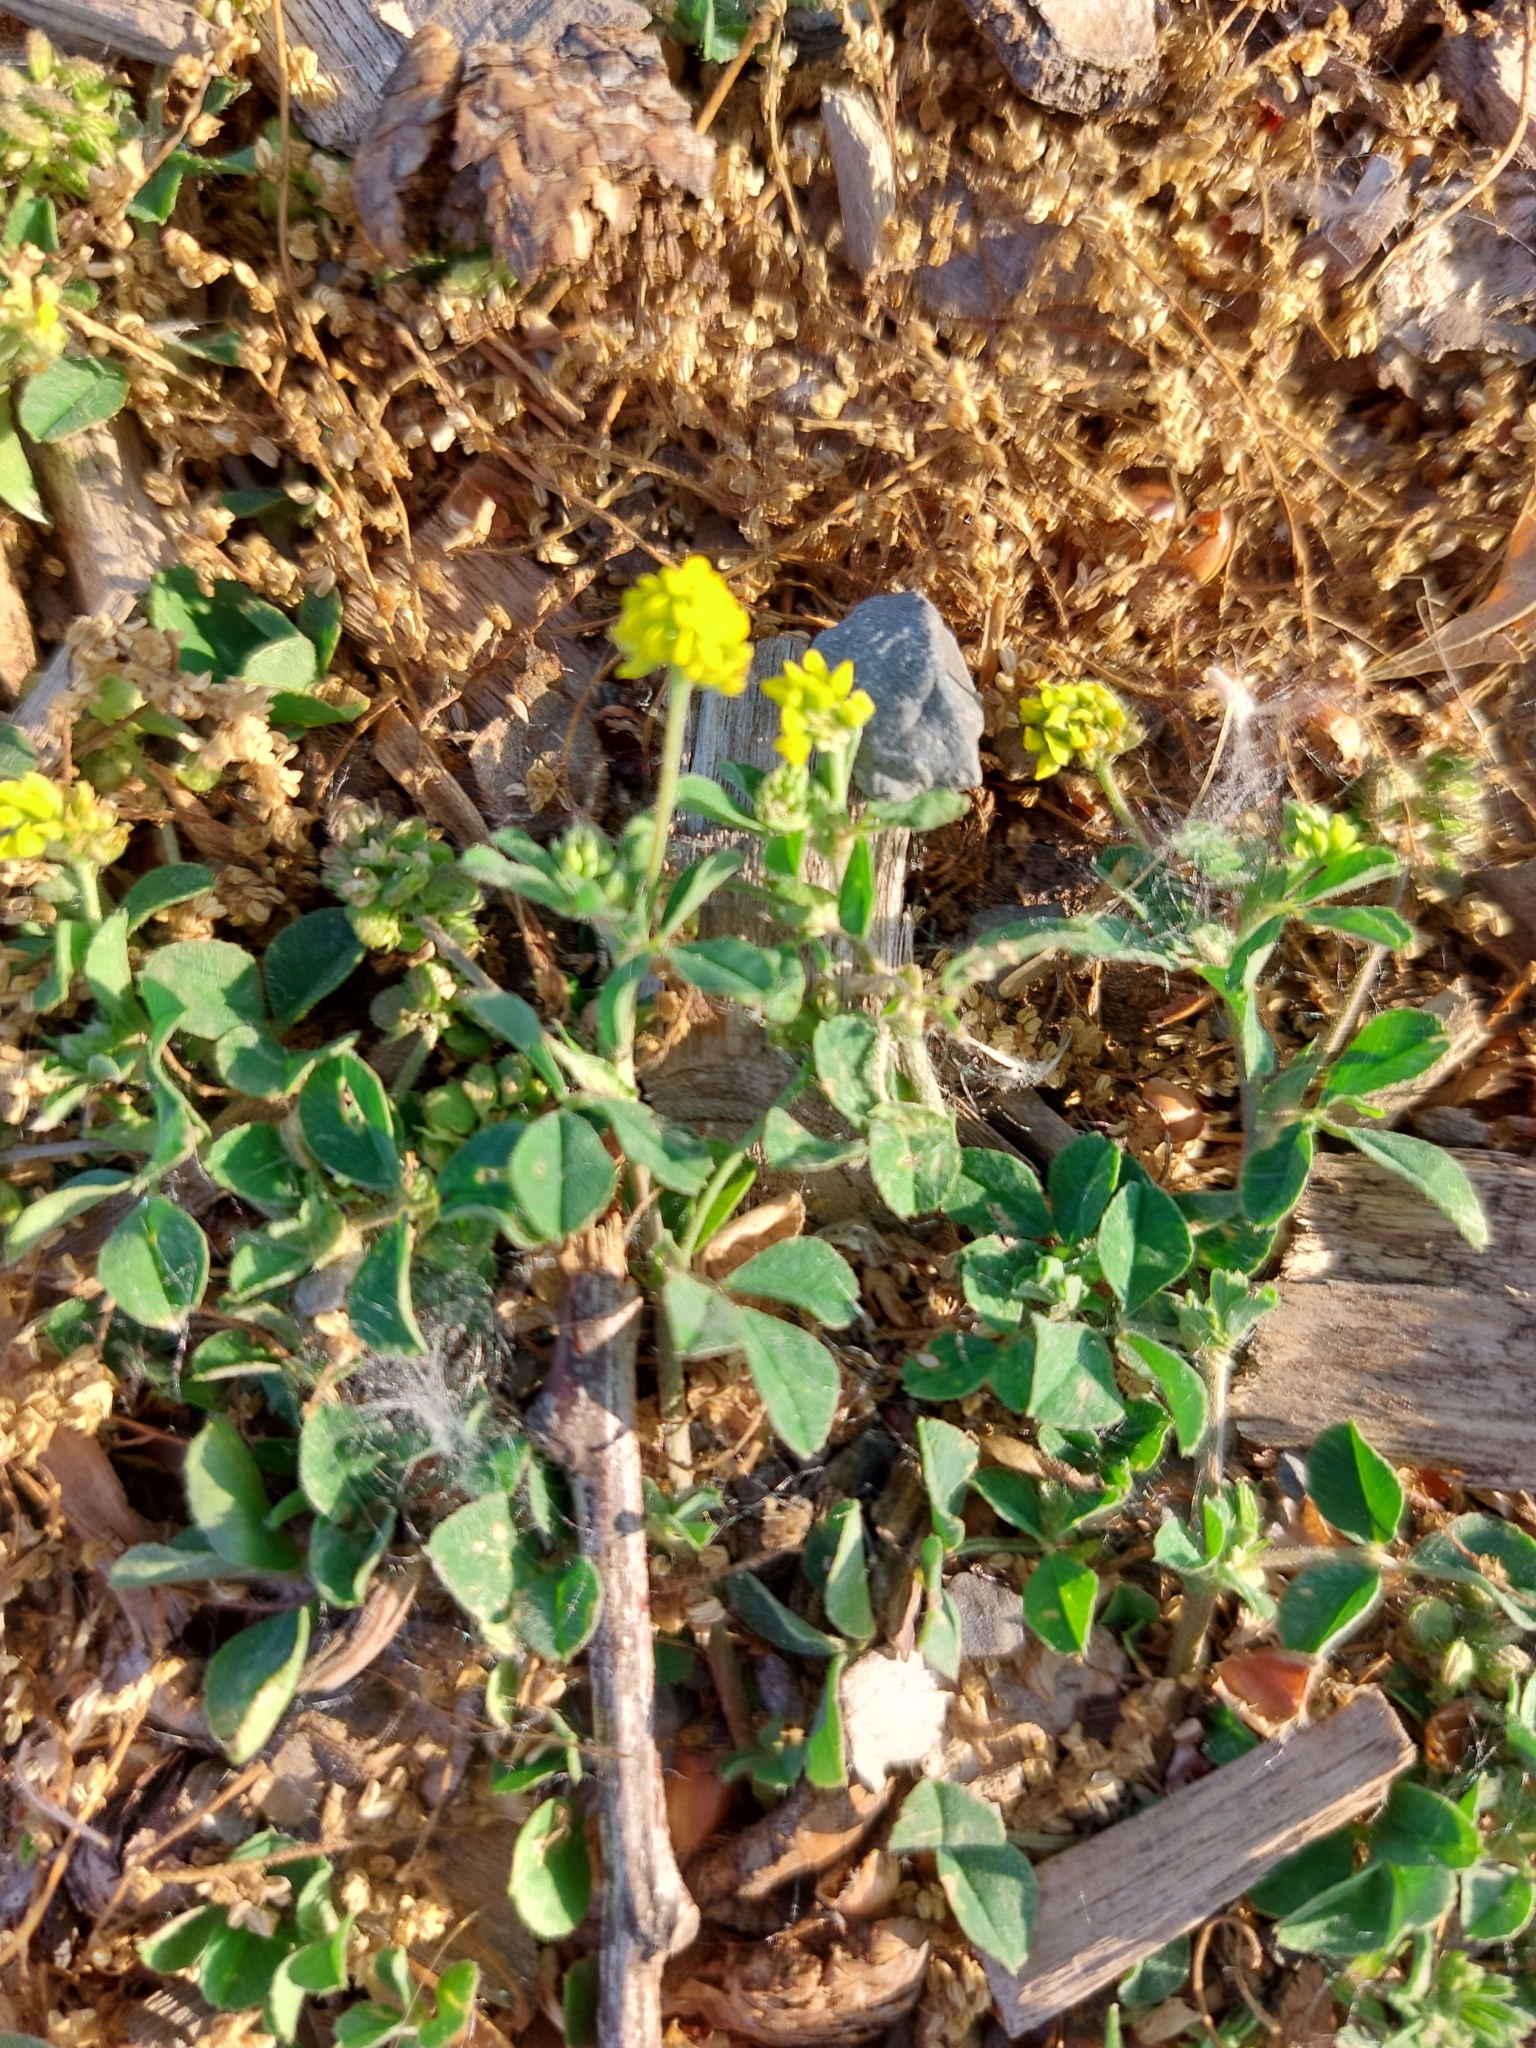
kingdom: Plantae
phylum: Tracheophyta
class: Magnoliopsida
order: Fabales
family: Fabaceae
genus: Medicago
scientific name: Medicago lupulina
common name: Black medick
